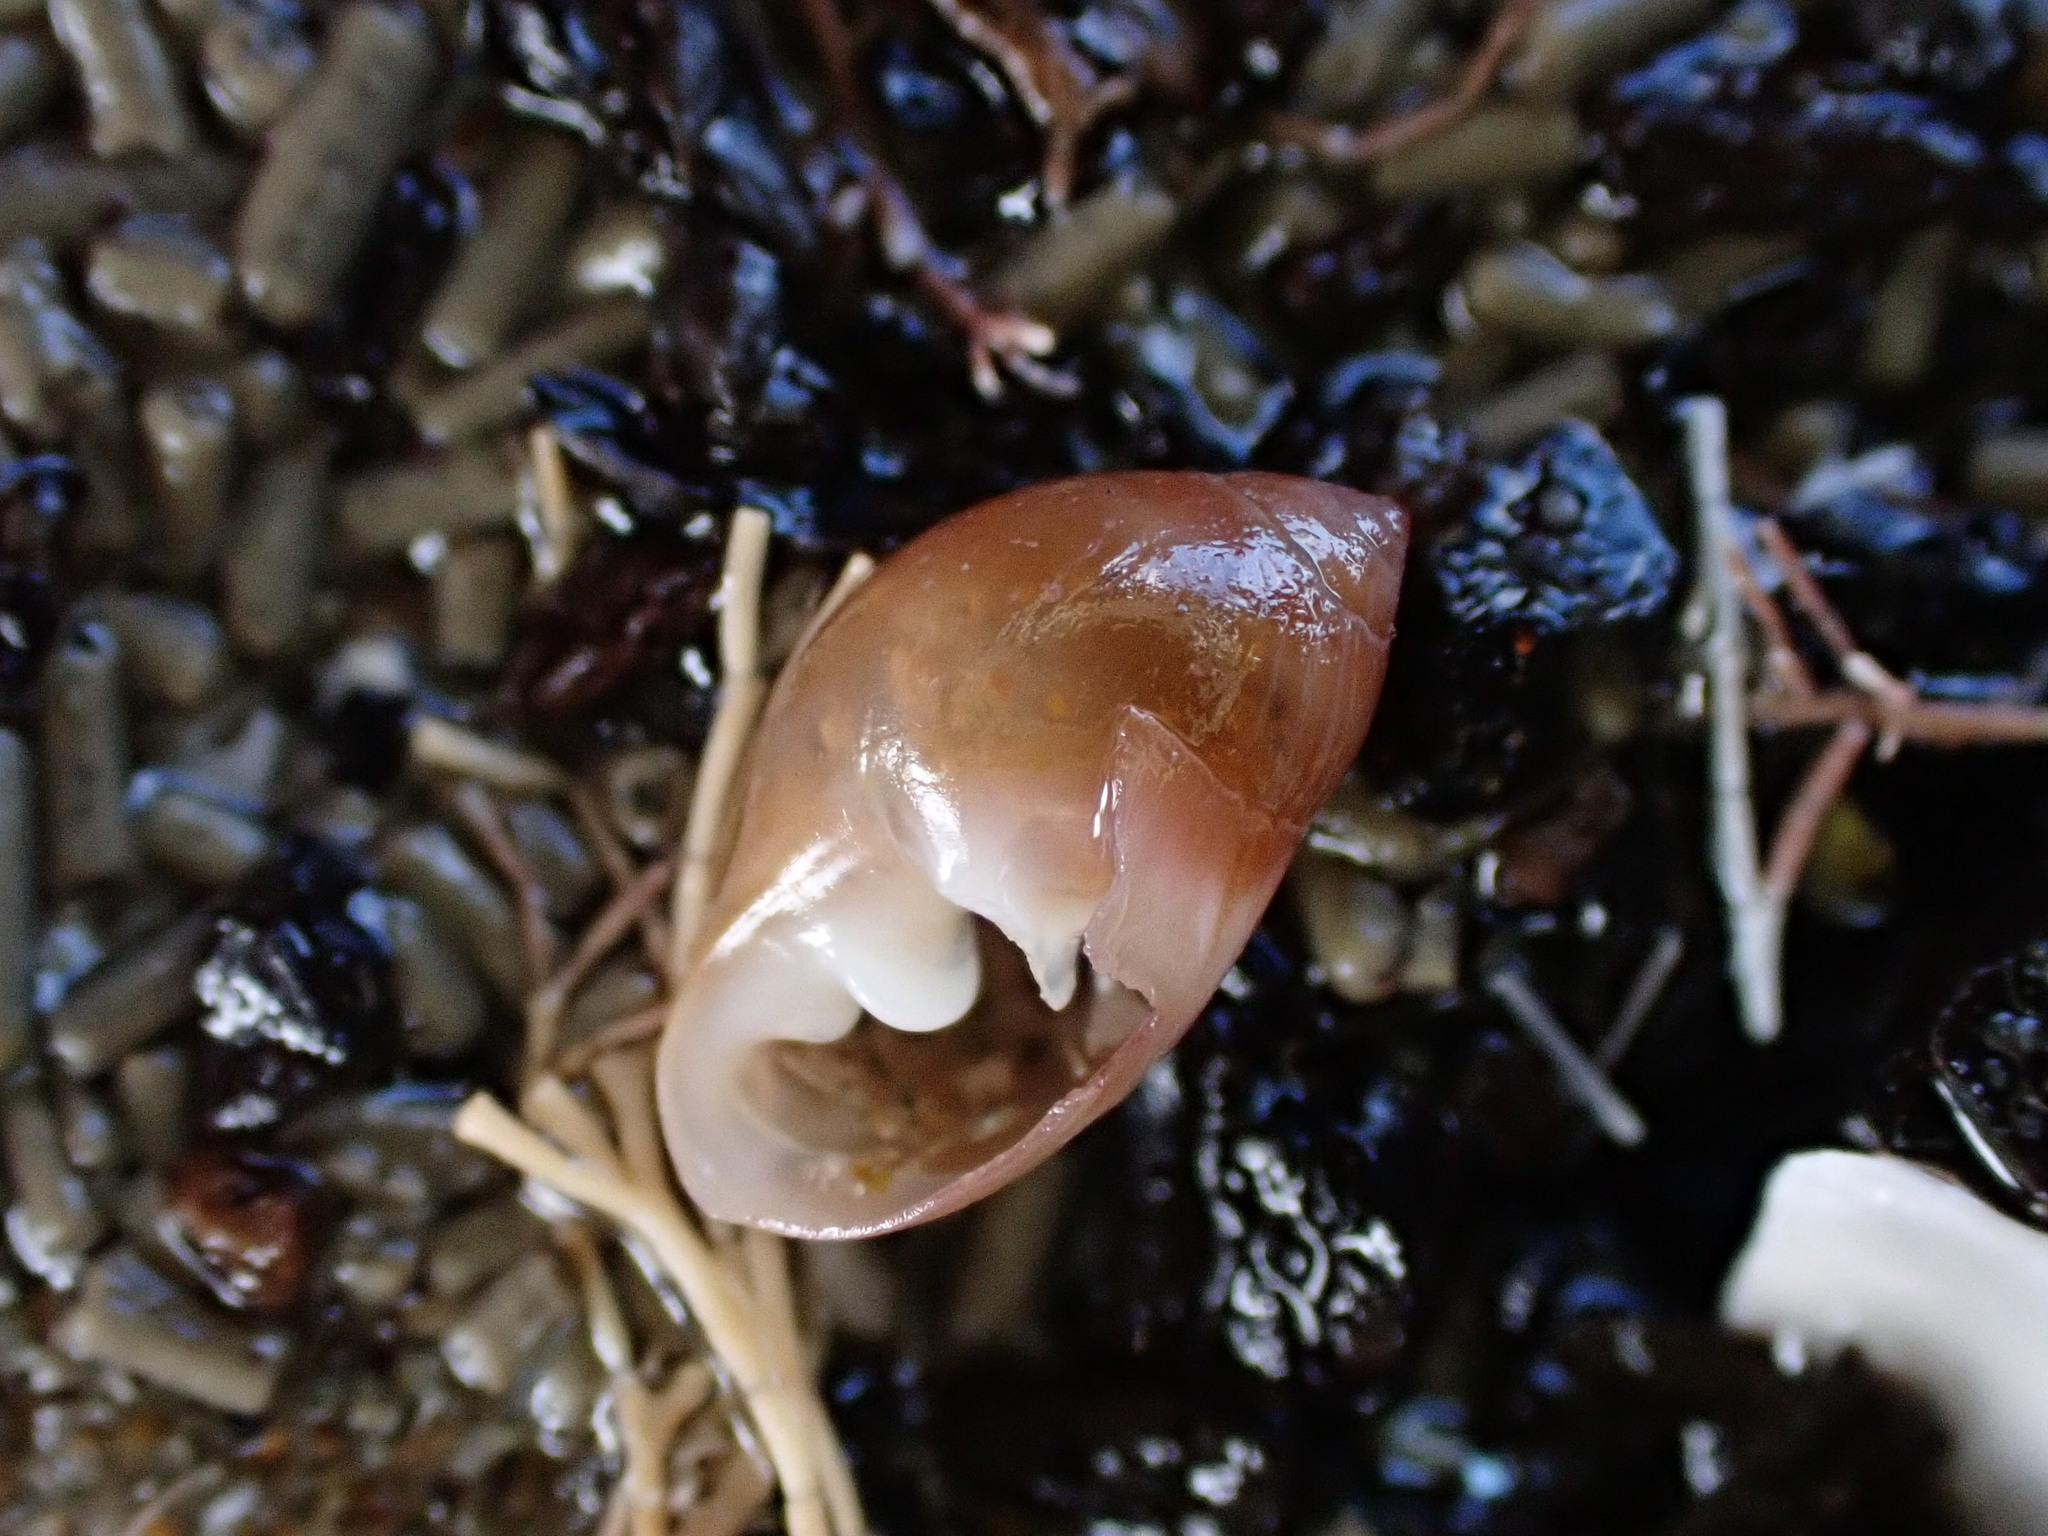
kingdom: Animalia
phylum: Mollusca
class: Gastropoda
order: Ellobiida
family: Ellobiidae
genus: Marinula
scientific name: Marinula filholi
